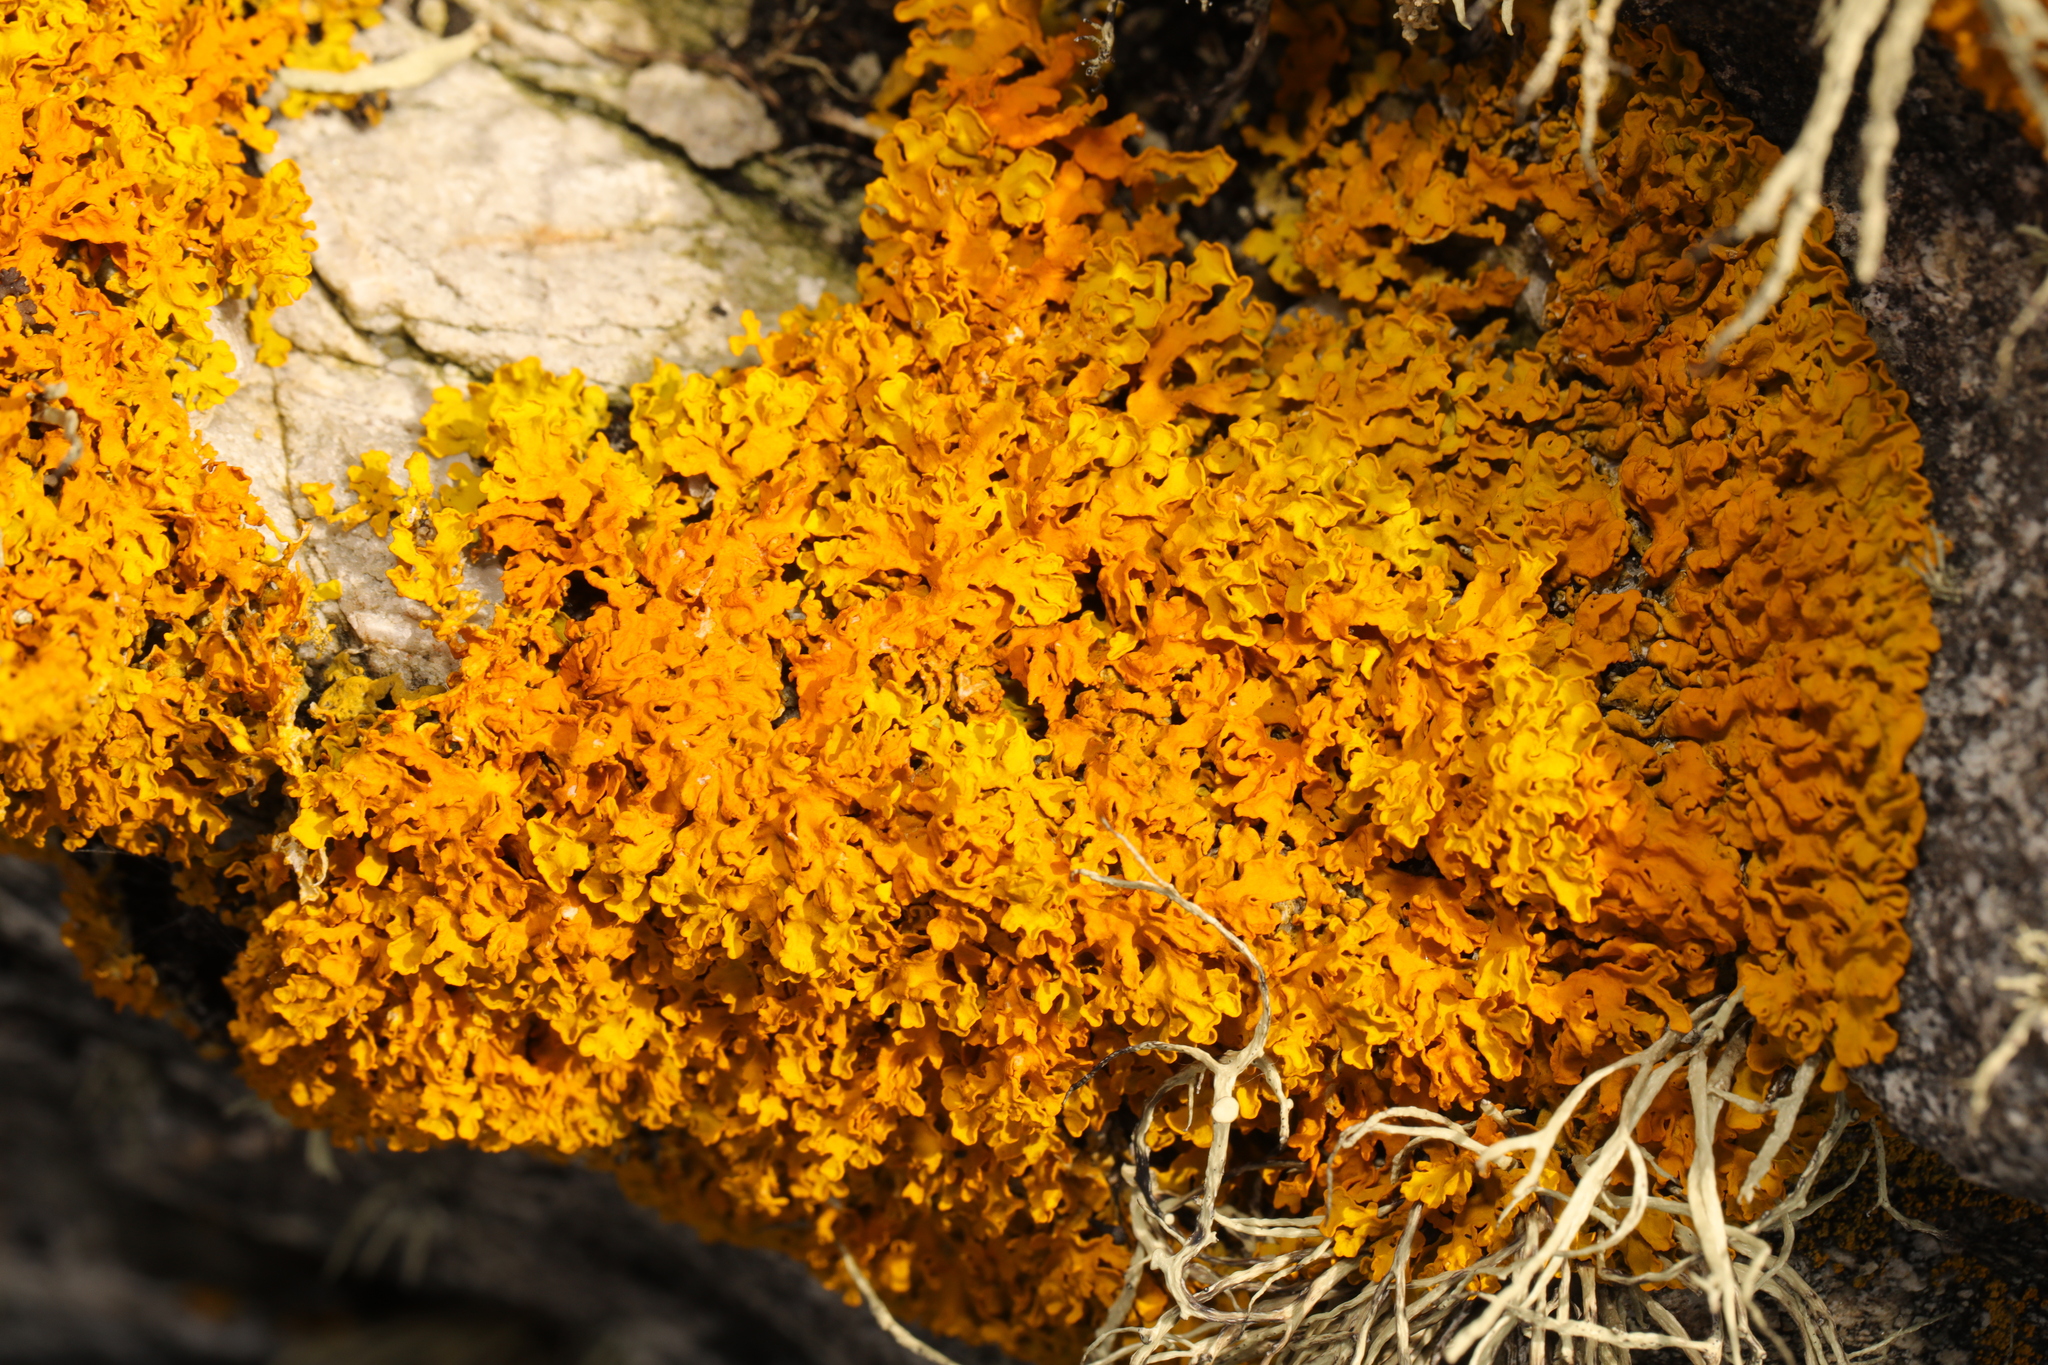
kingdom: Fungi
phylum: Ascomycota
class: Lecanoromycetes
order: Teloschistales
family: Teloschistaceae
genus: Xanthoria
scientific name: Xanthoria aureola
